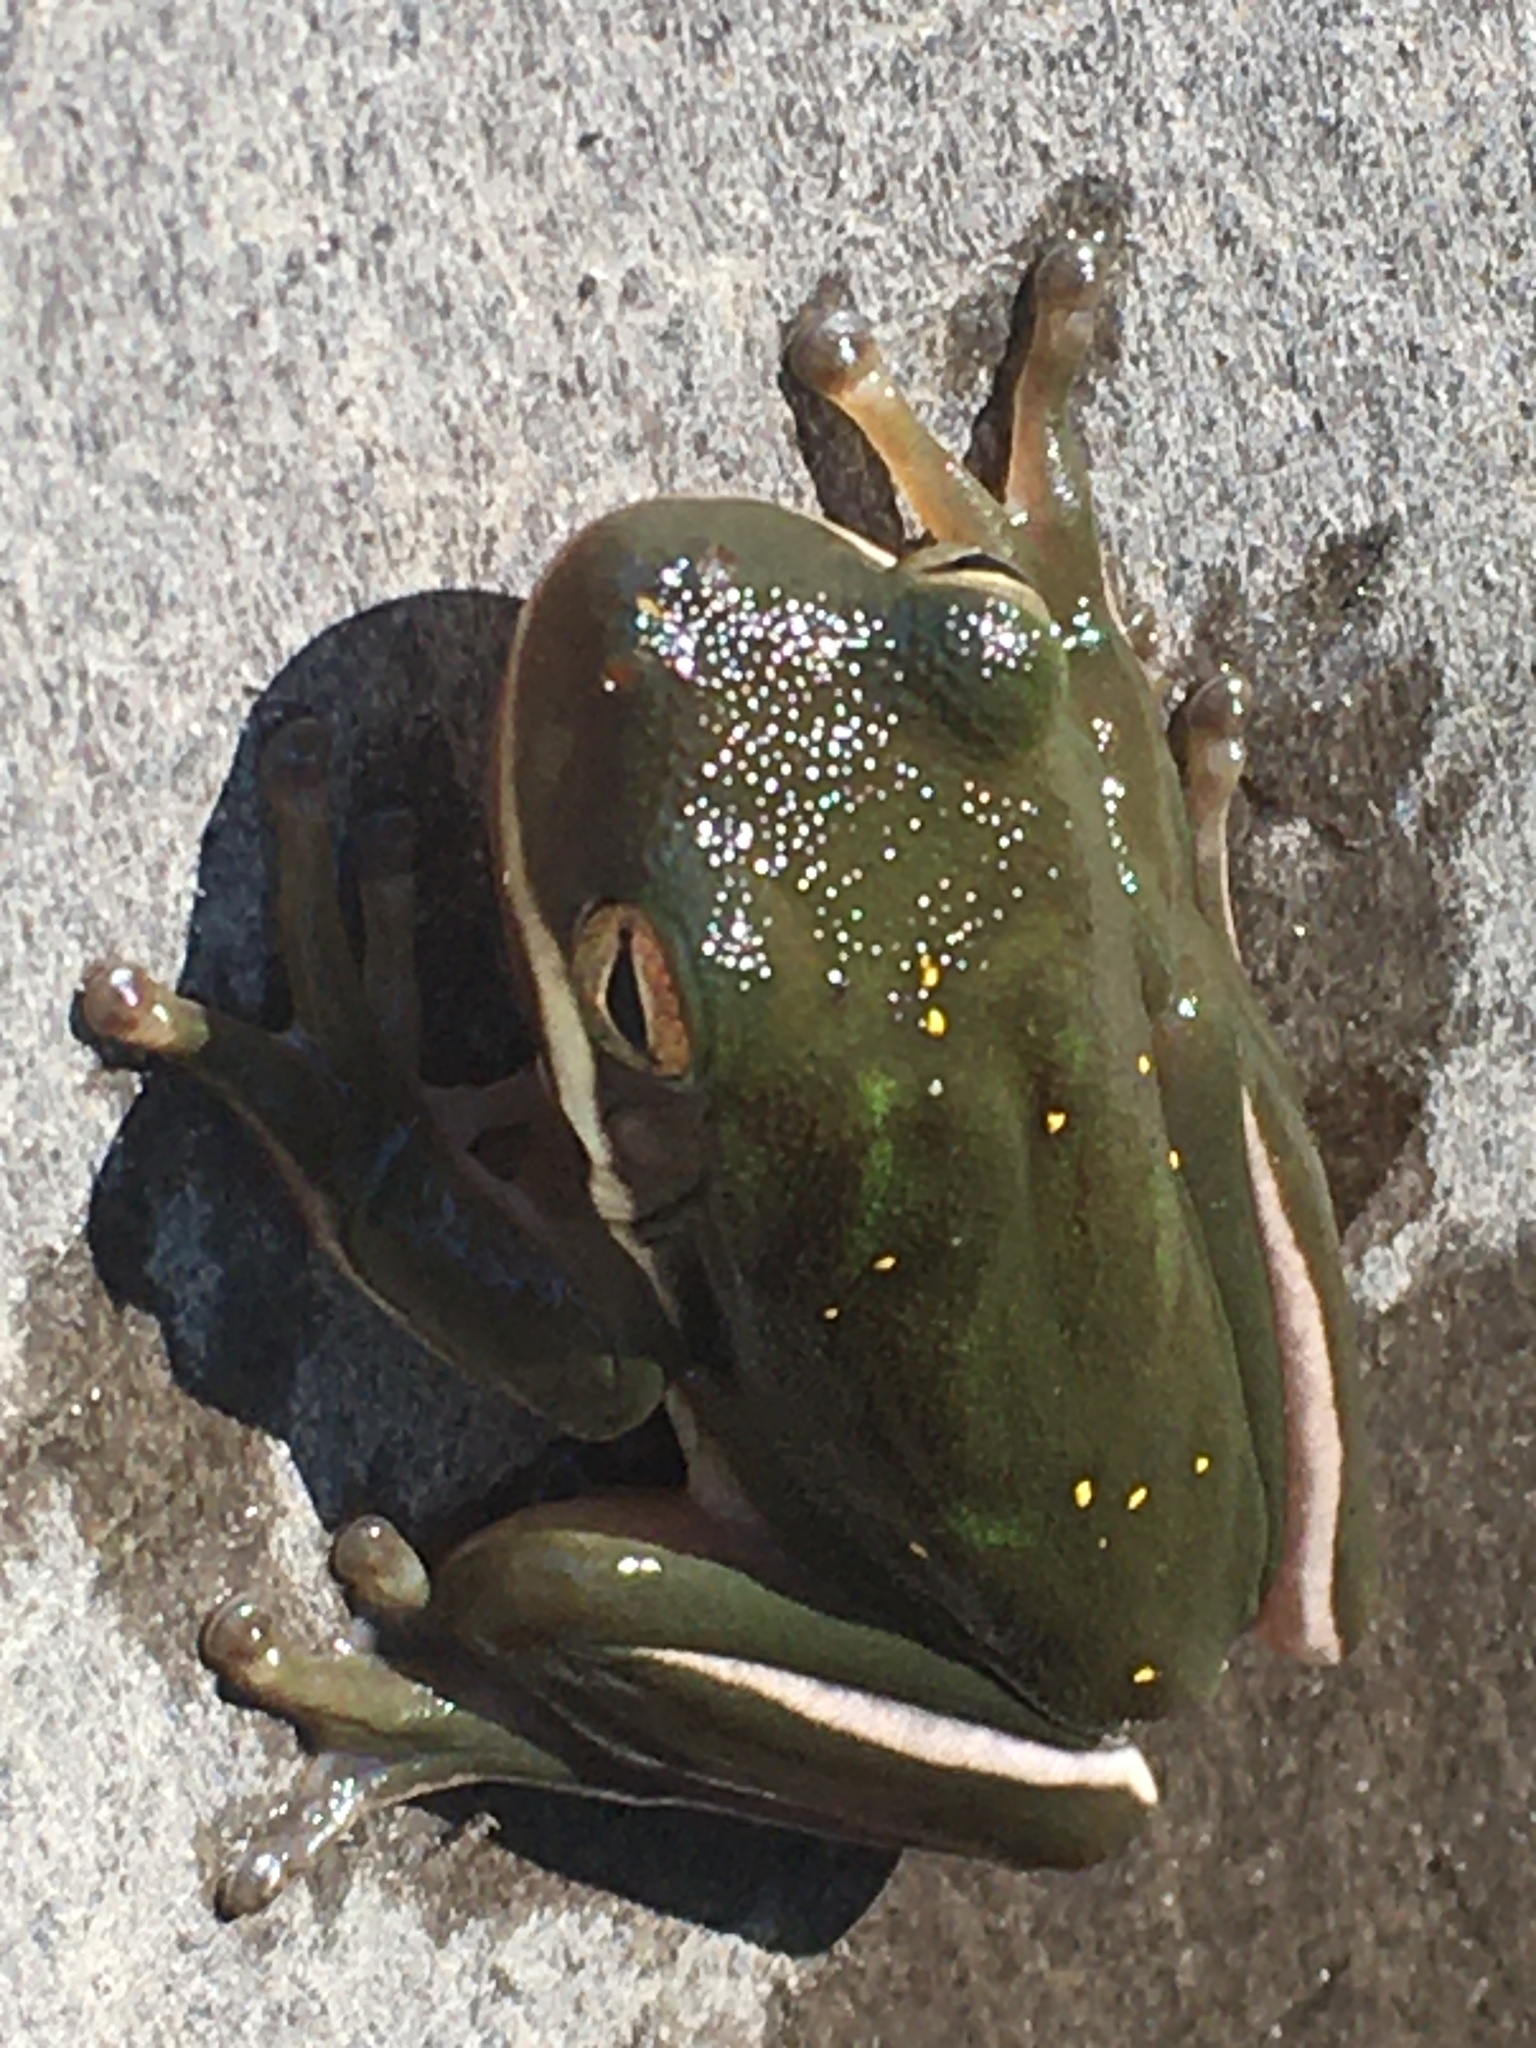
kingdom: Animalia
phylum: Chordata
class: Amphibia
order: Anura
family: Hylidae
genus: Dryophytes
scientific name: Dryophytes cinereus
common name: Green treefrog
